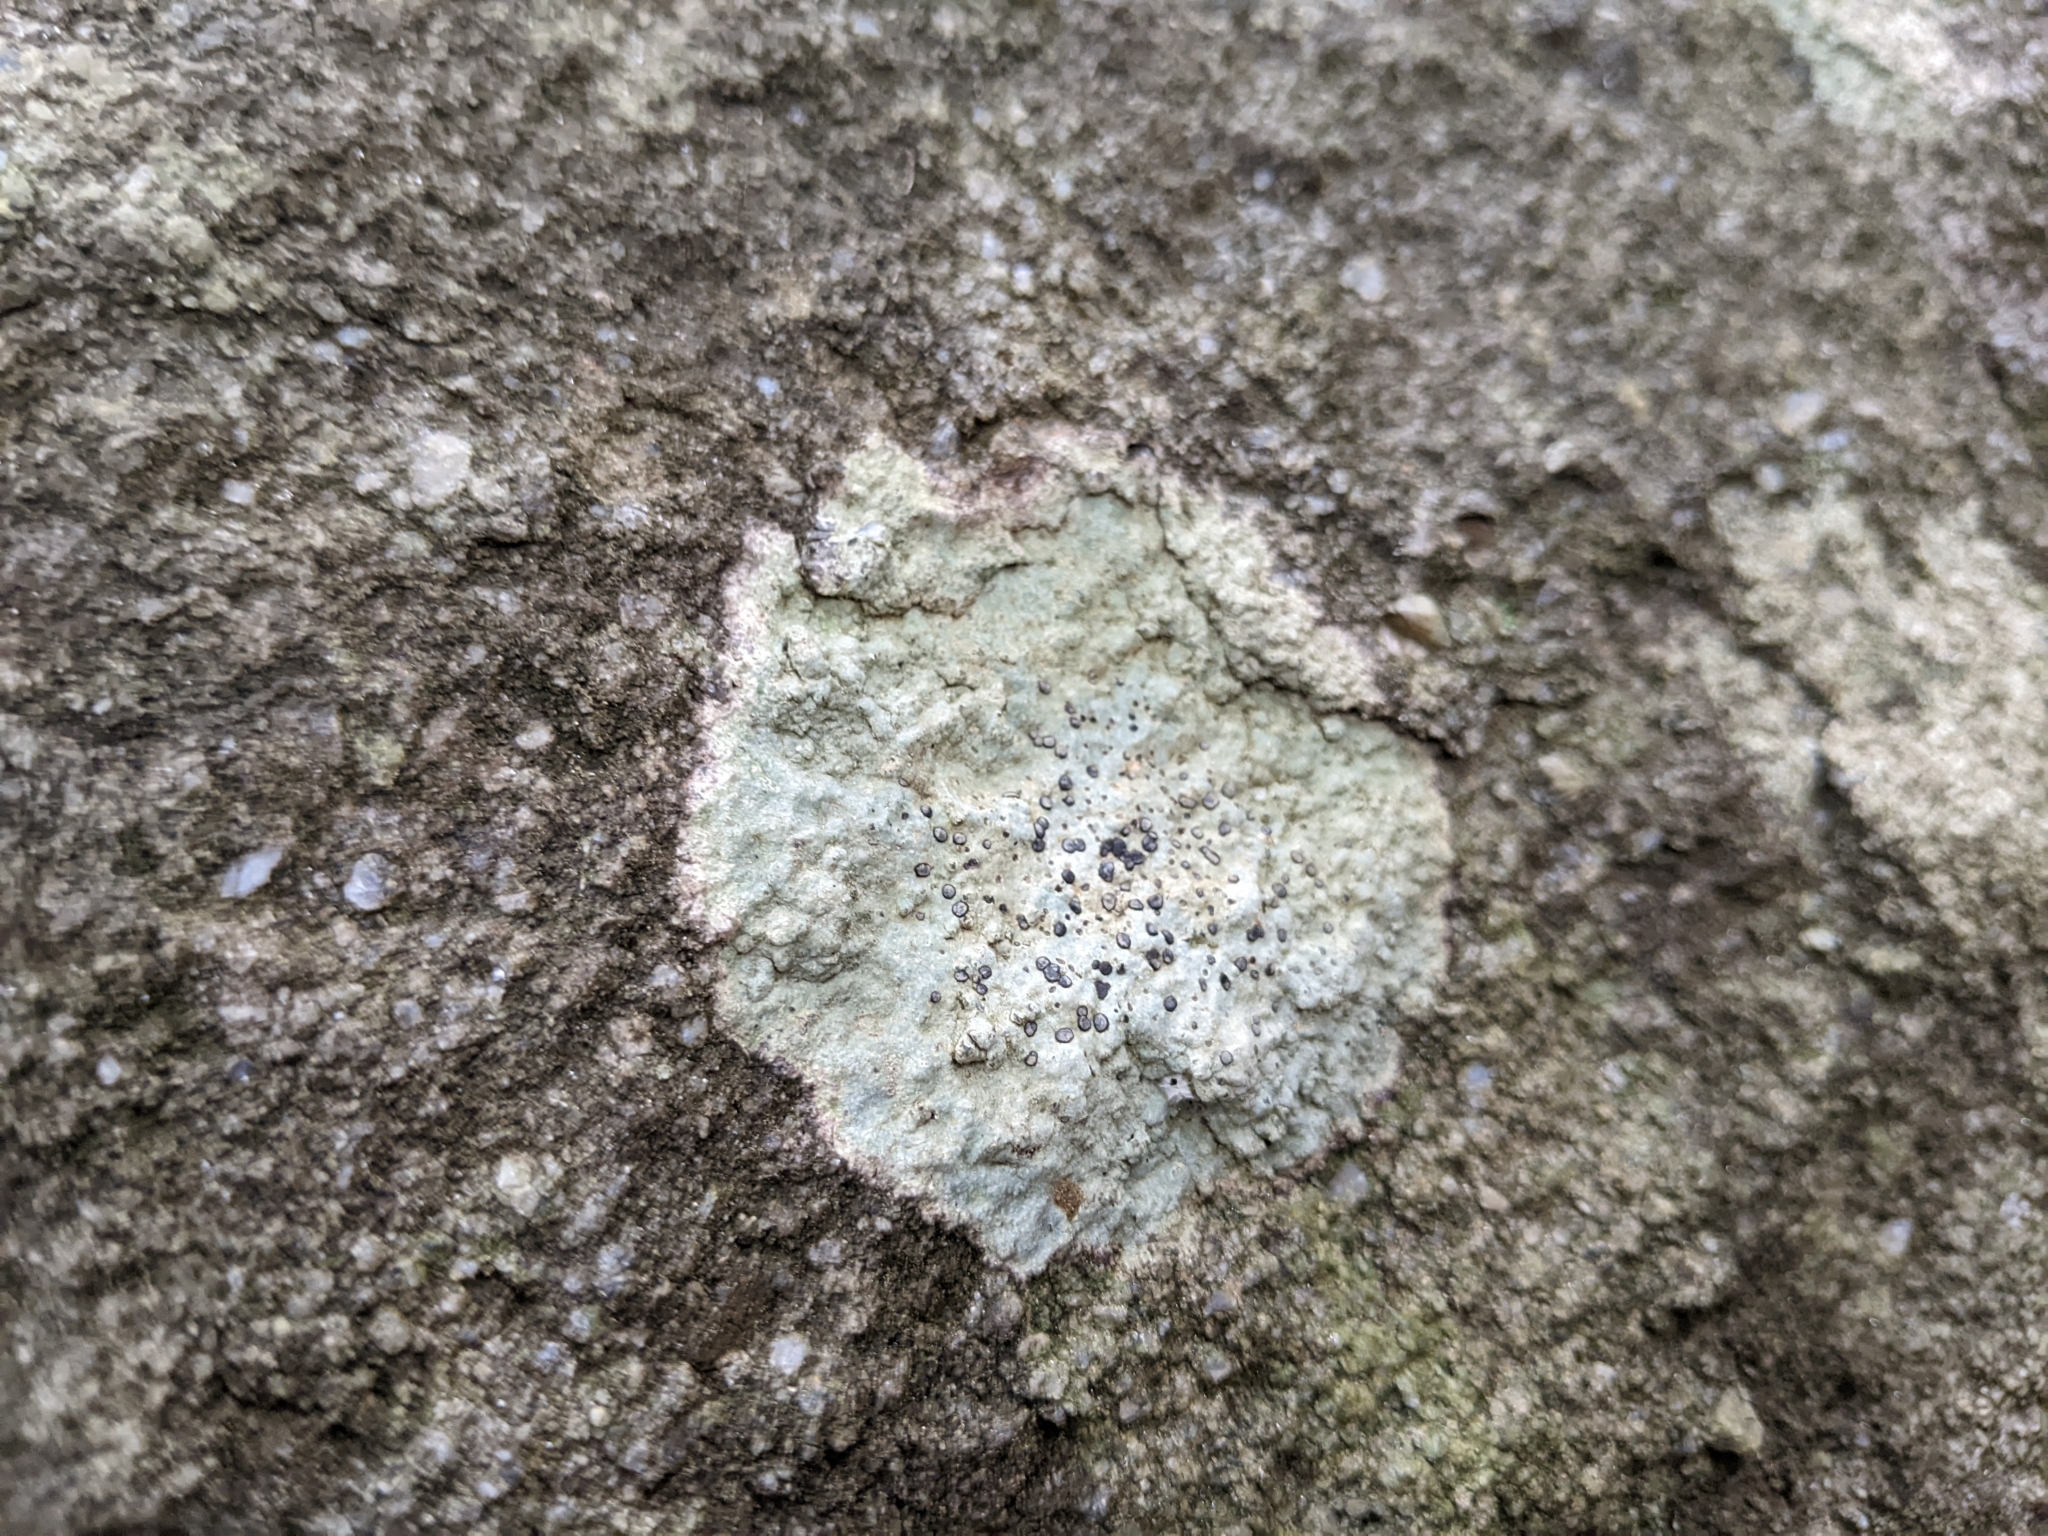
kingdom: Fungi
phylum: Ascomycota
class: Lecanoromycetes
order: Lecideales
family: Lecideaceae
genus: Porpidia
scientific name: Porpidia albocaerulescens
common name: Smokey-eyed boulder lichen
